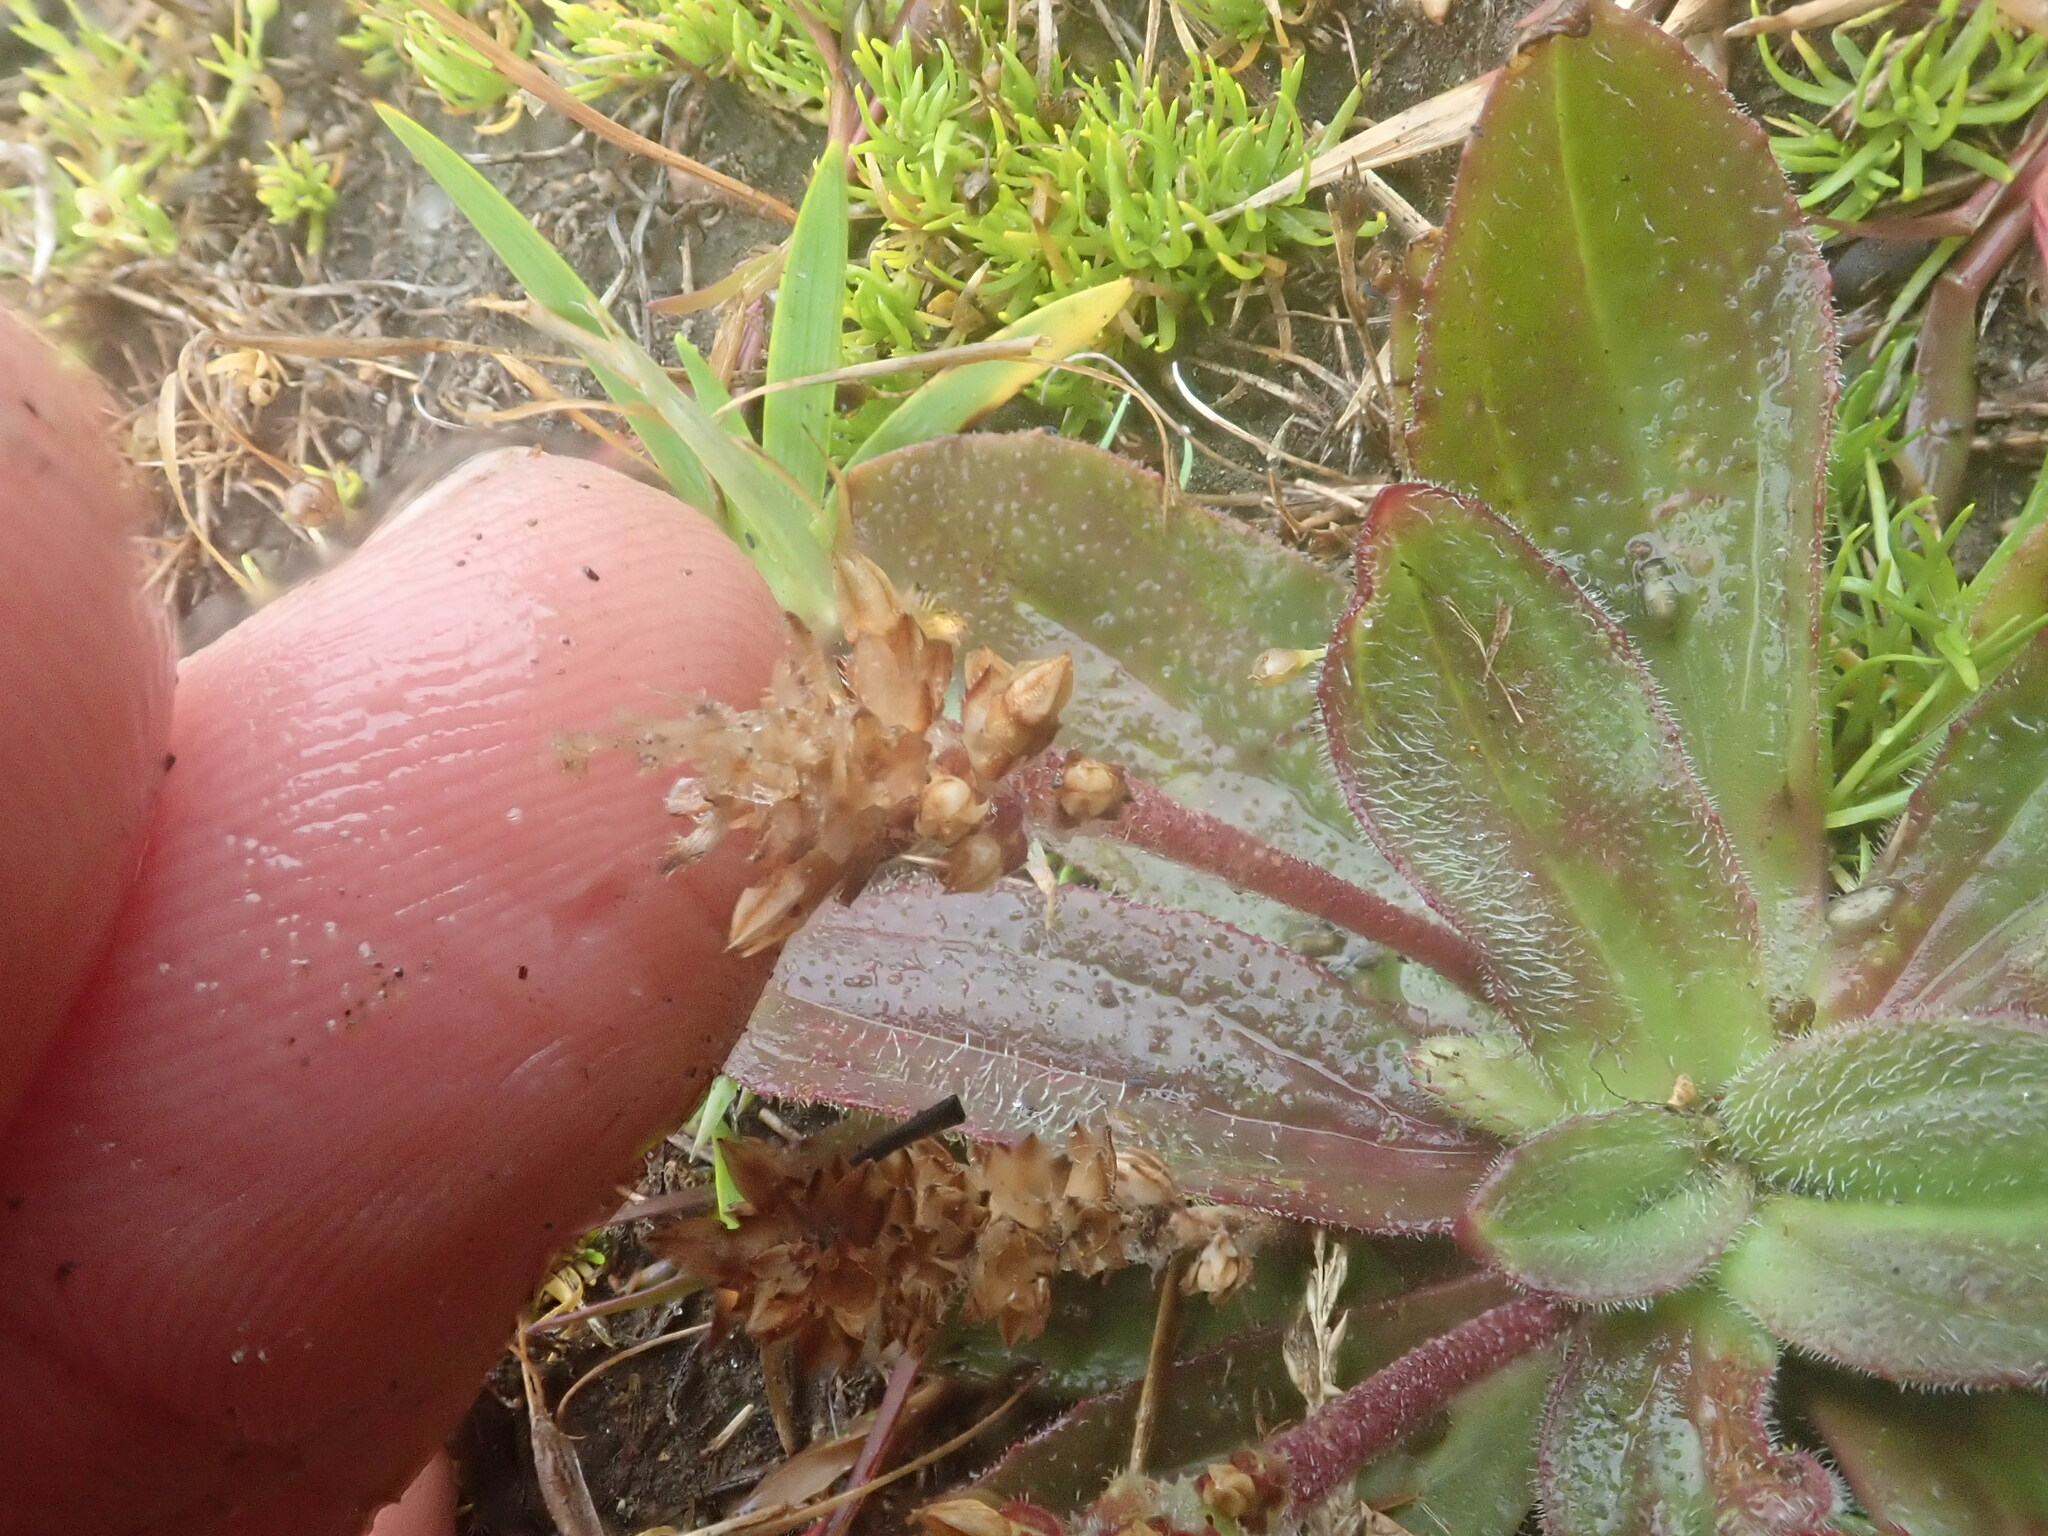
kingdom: Plantae
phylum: Tracheophyta
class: Magnoliopsida
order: Lamiales
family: Plantaginaceae
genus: Plantago
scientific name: Plantago australis
